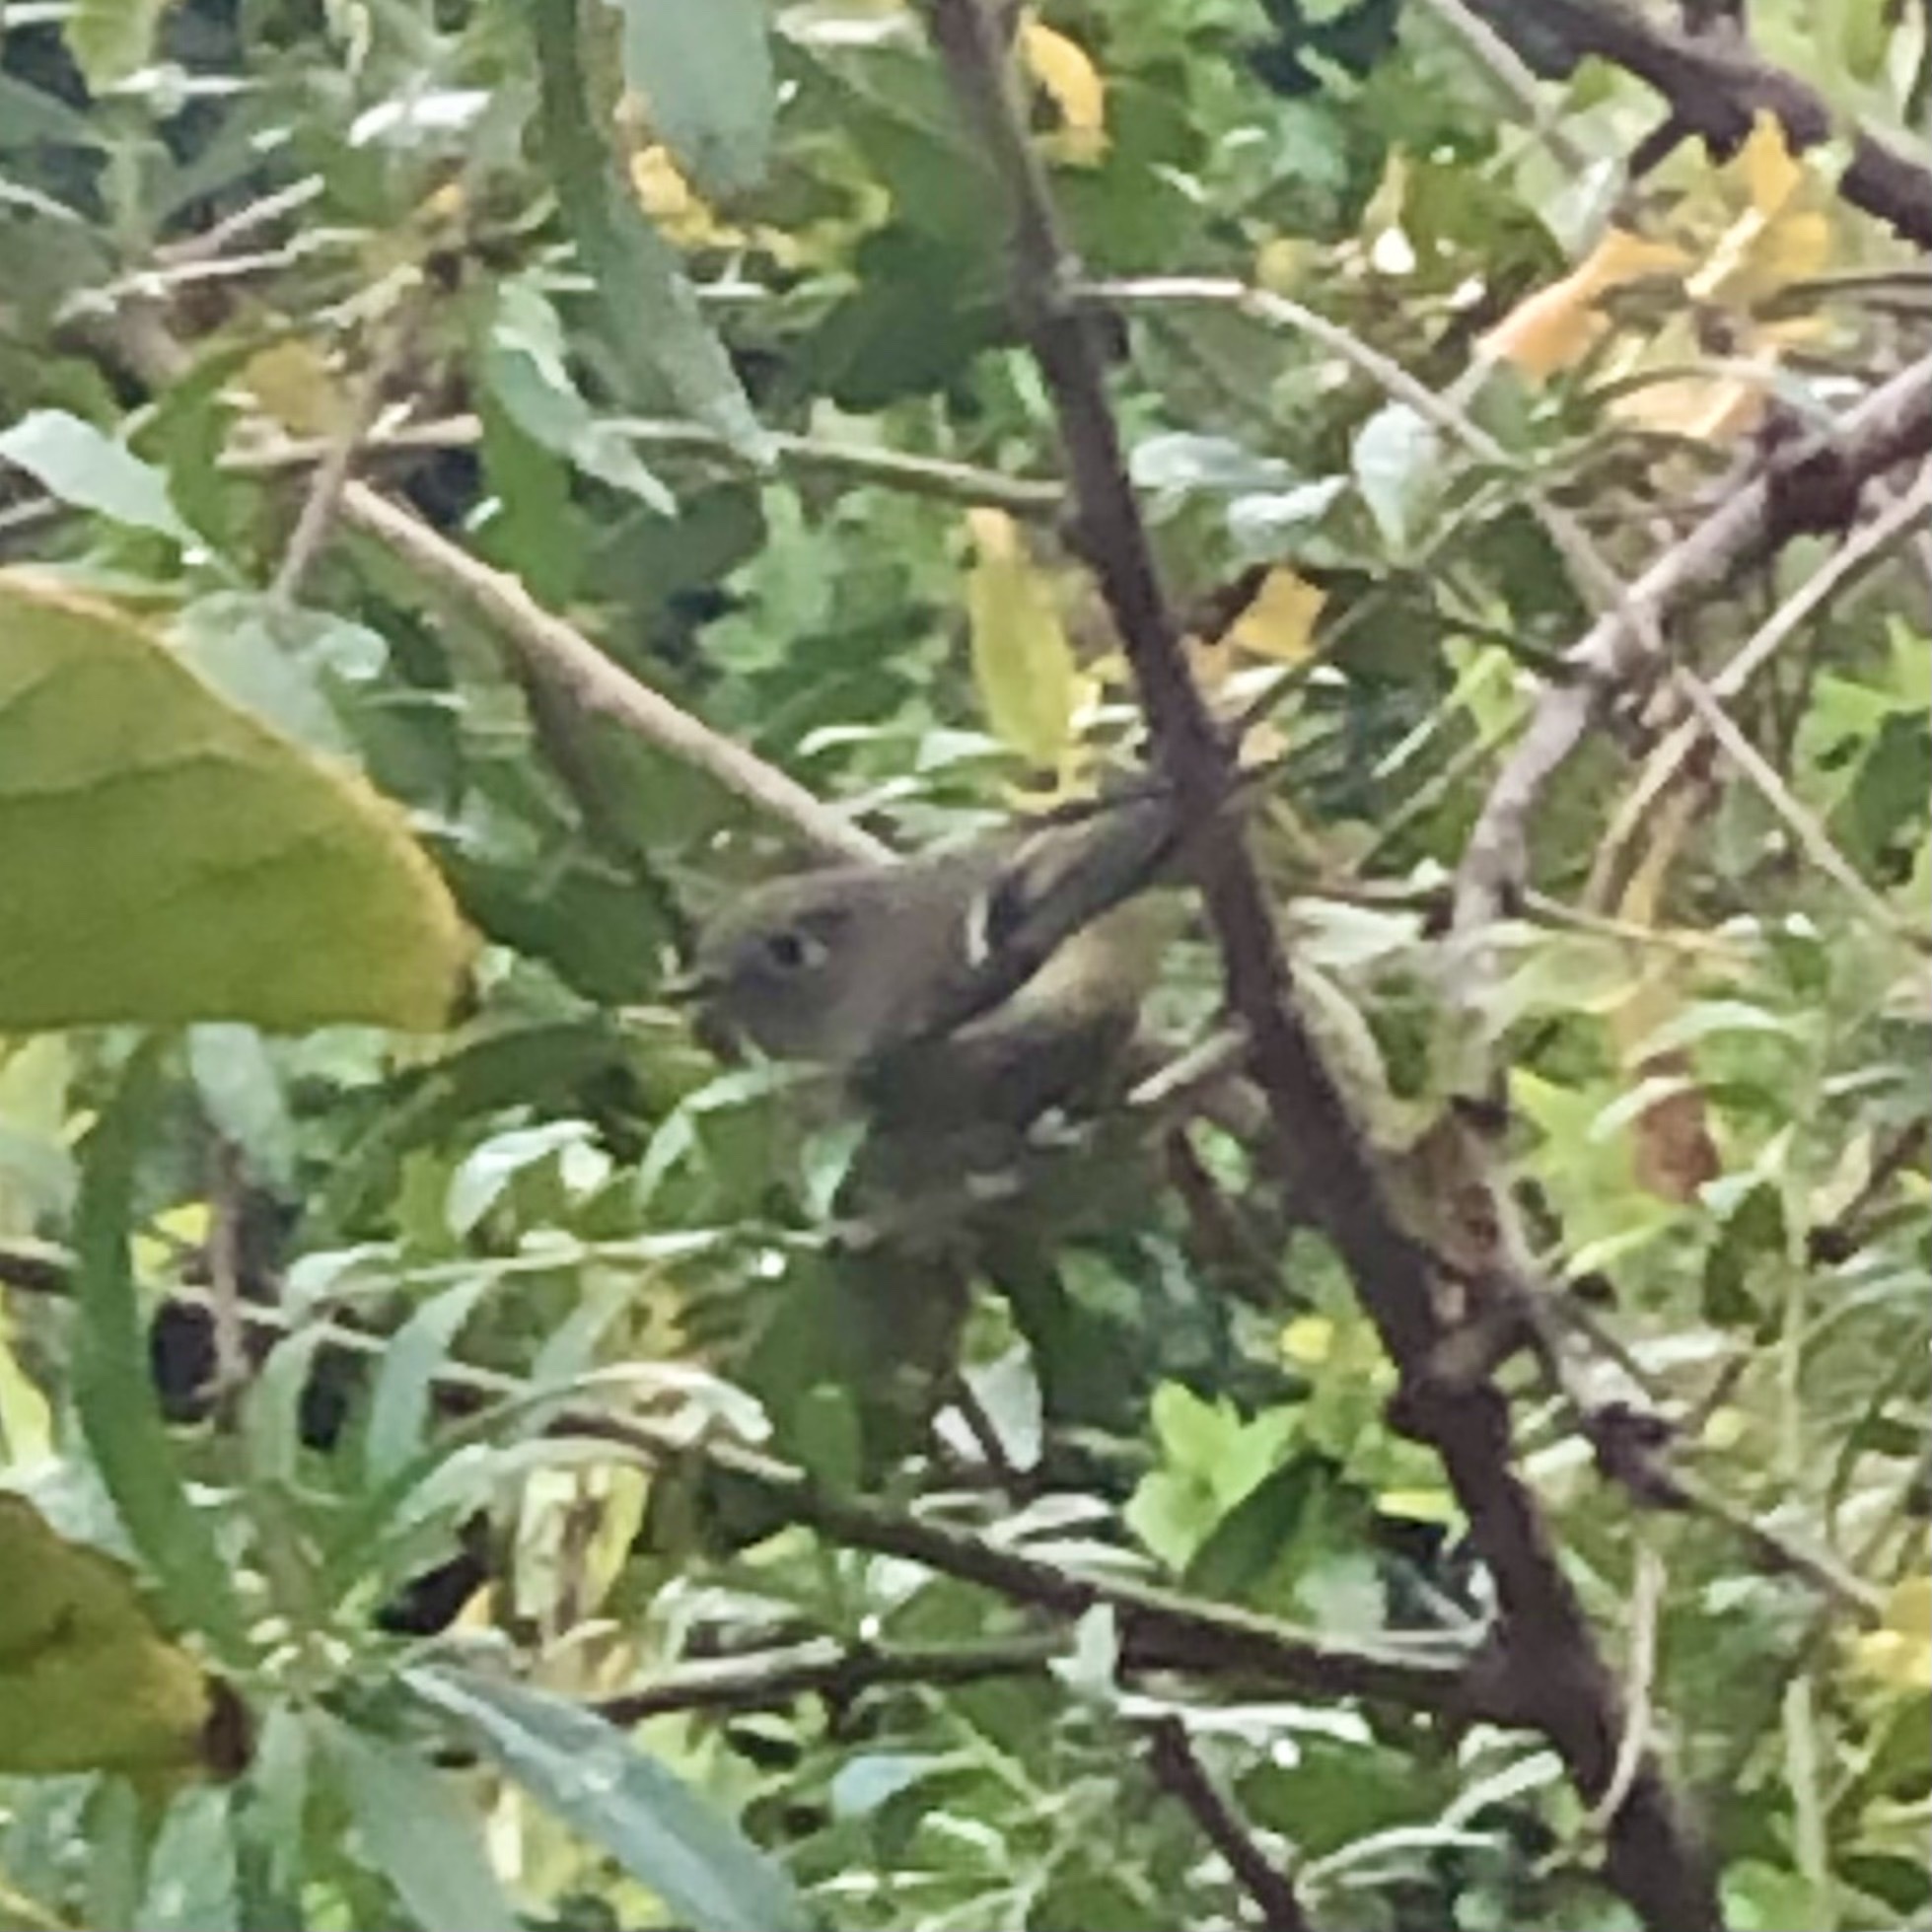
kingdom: Animalia
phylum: Chordata
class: Aves
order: Passeriformes
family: Regulidae
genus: Regulus
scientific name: Regulus calendula
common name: Ruby-crowned kinglet
